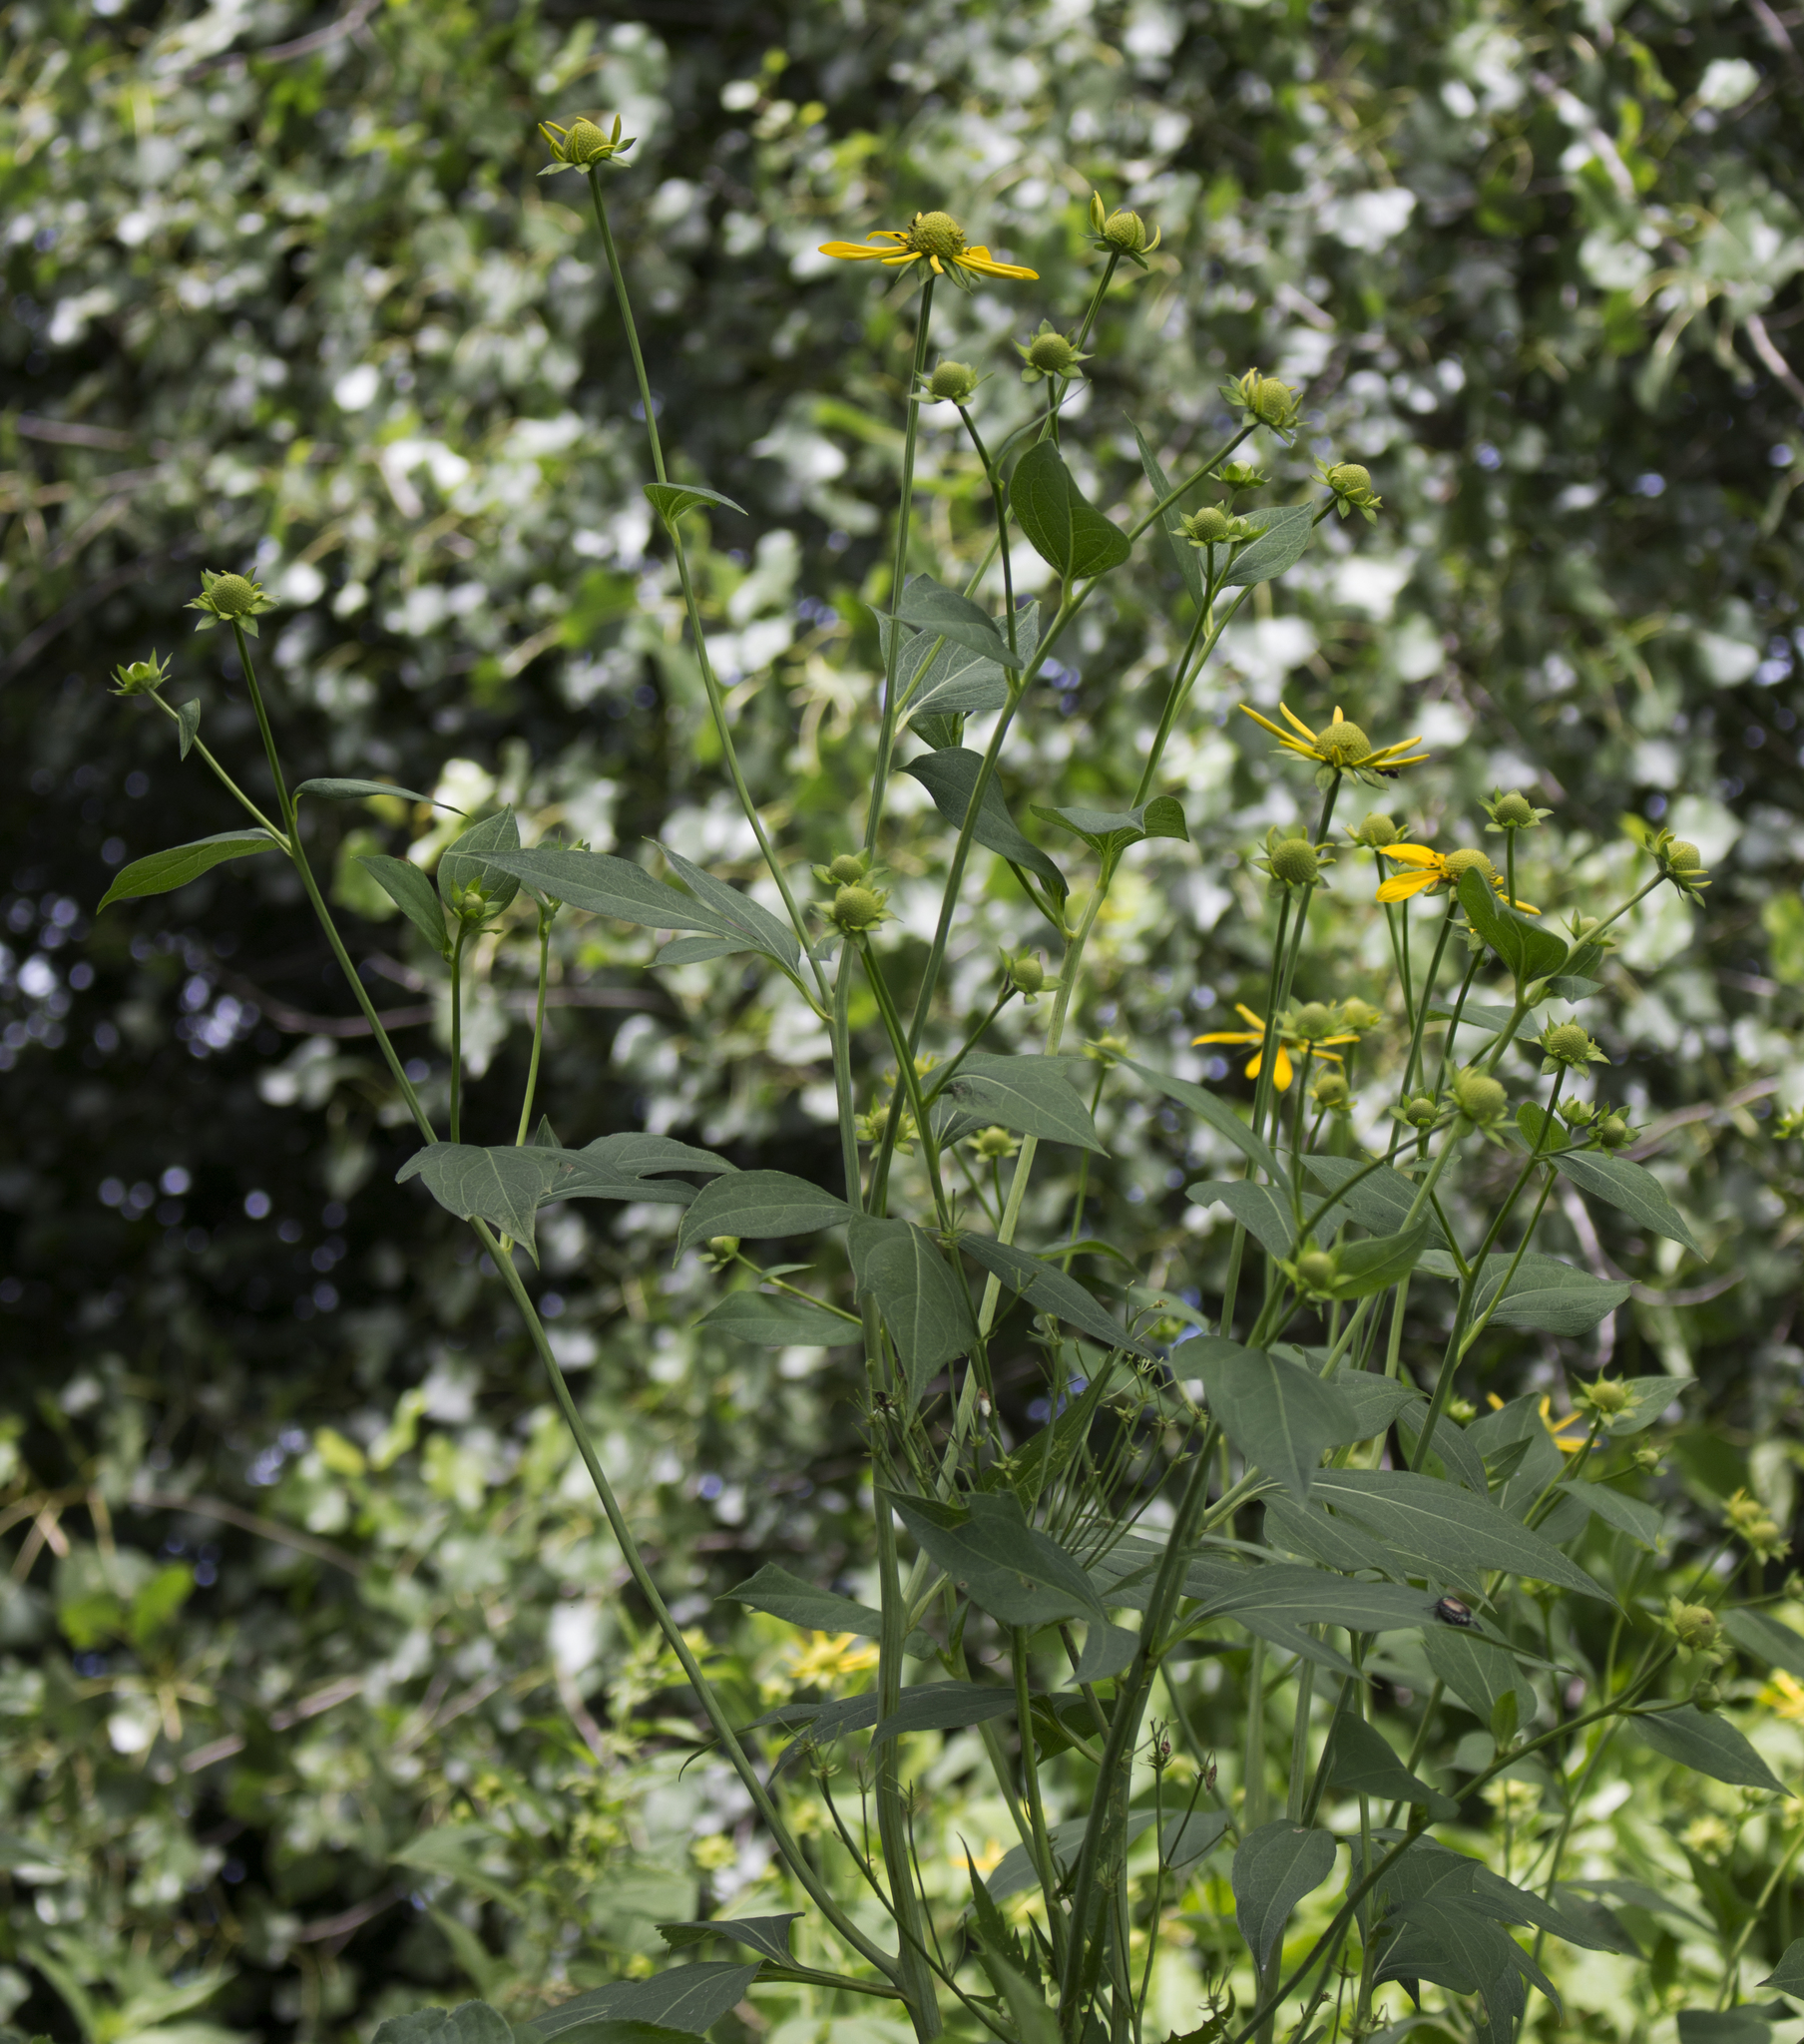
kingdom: Plantae
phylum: Tracheophyta
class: Magnoliopsida
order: Asterales
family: Asteraceae
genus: Rudbeckia
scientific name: Rudbeckia laciniata
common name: Coneflower
